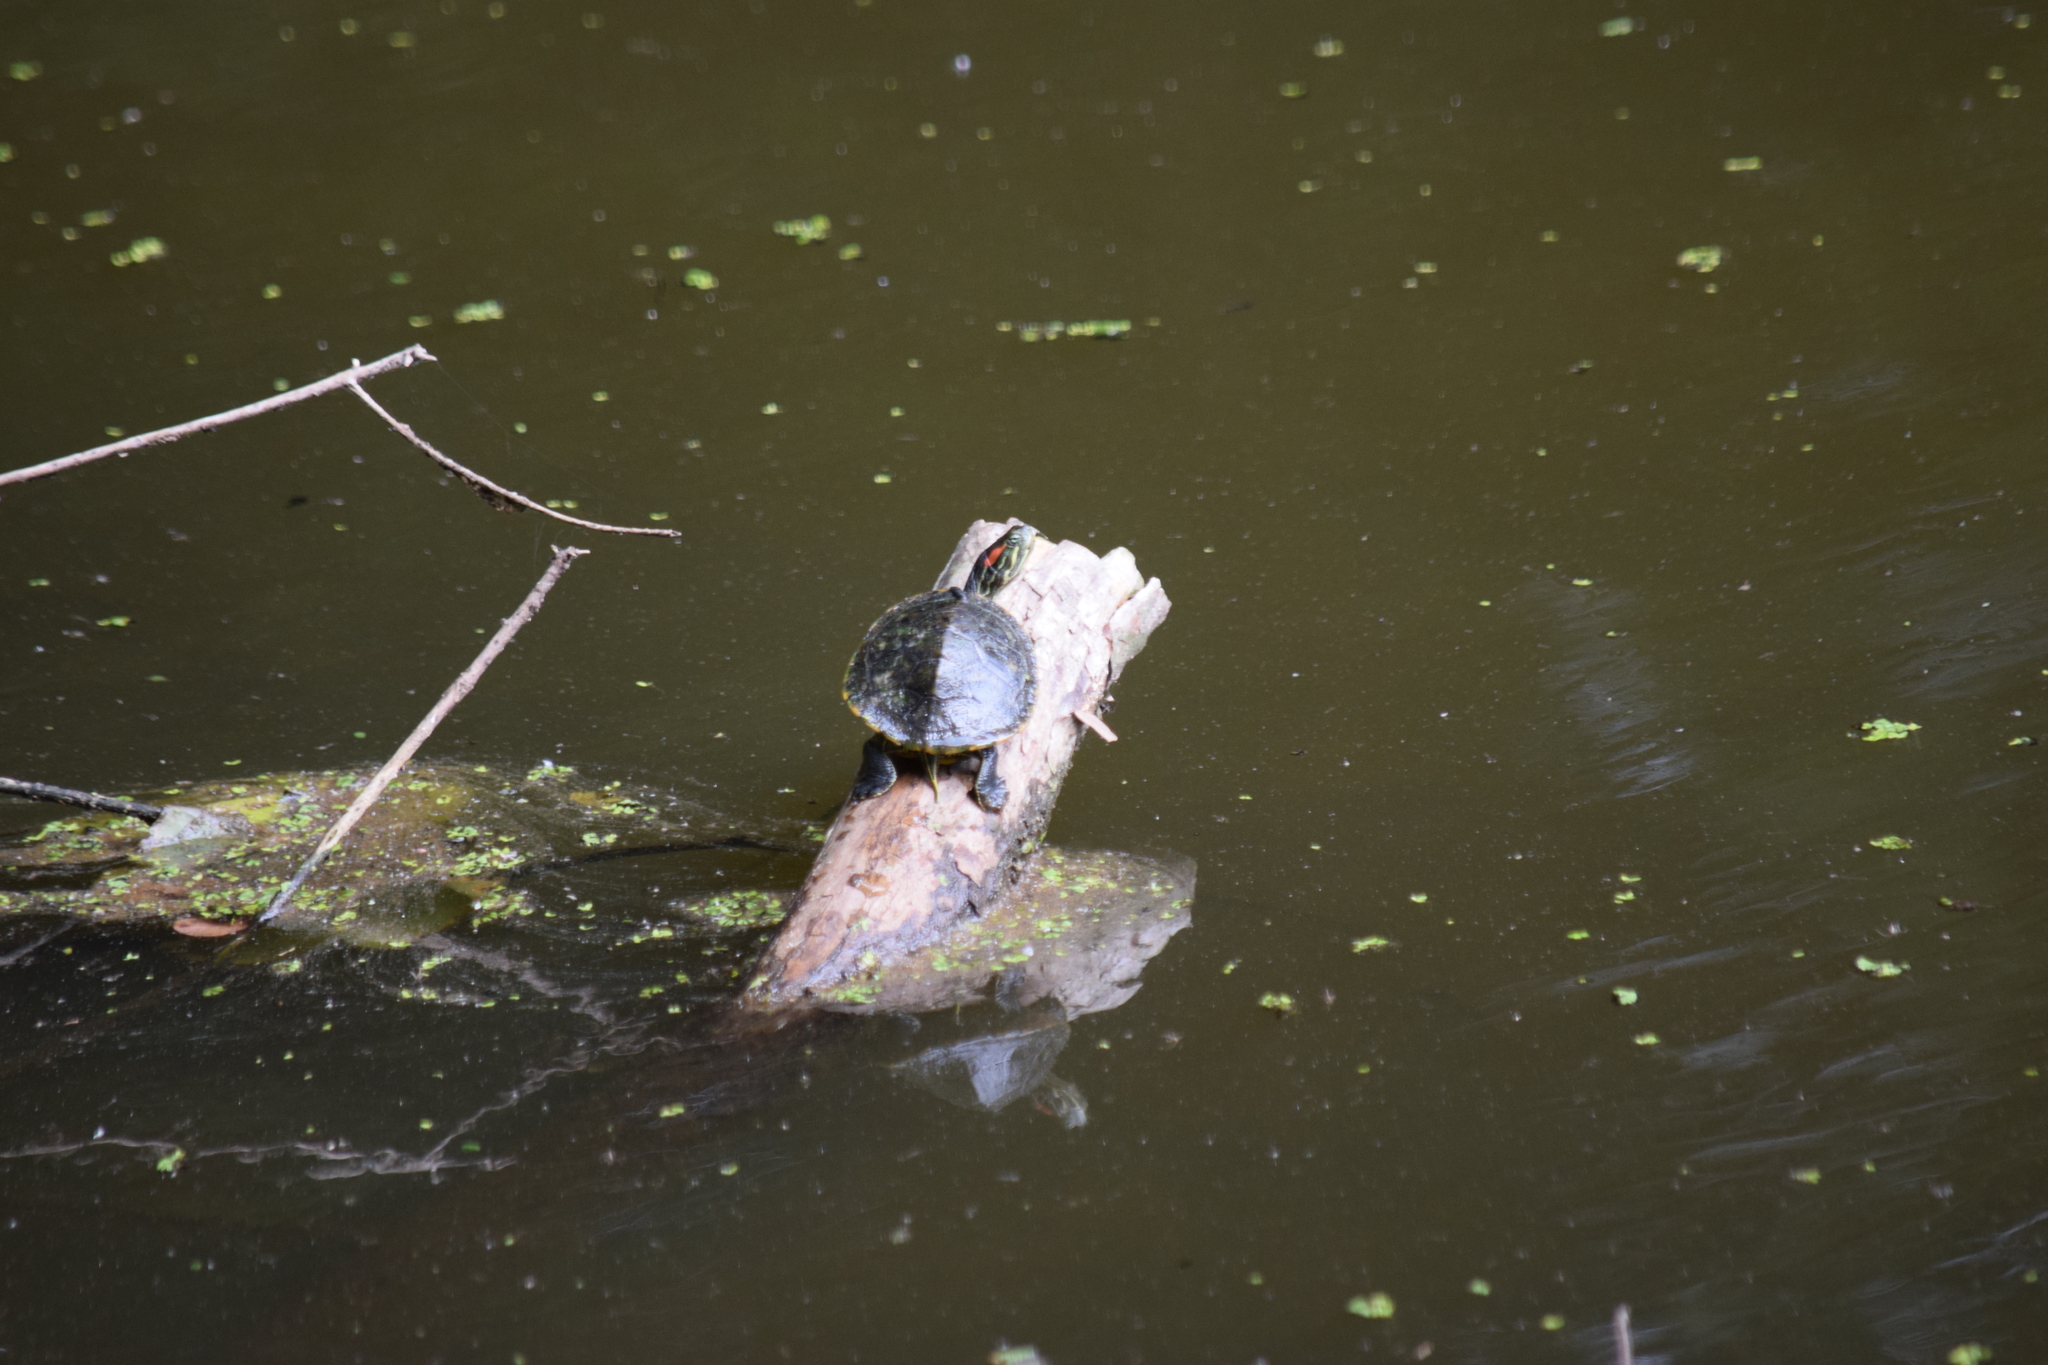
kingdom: Animalia
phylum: Chordata
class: Testudines
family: Emydidae
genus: Trachemys
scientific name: Trachemys scripta
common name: Slider
